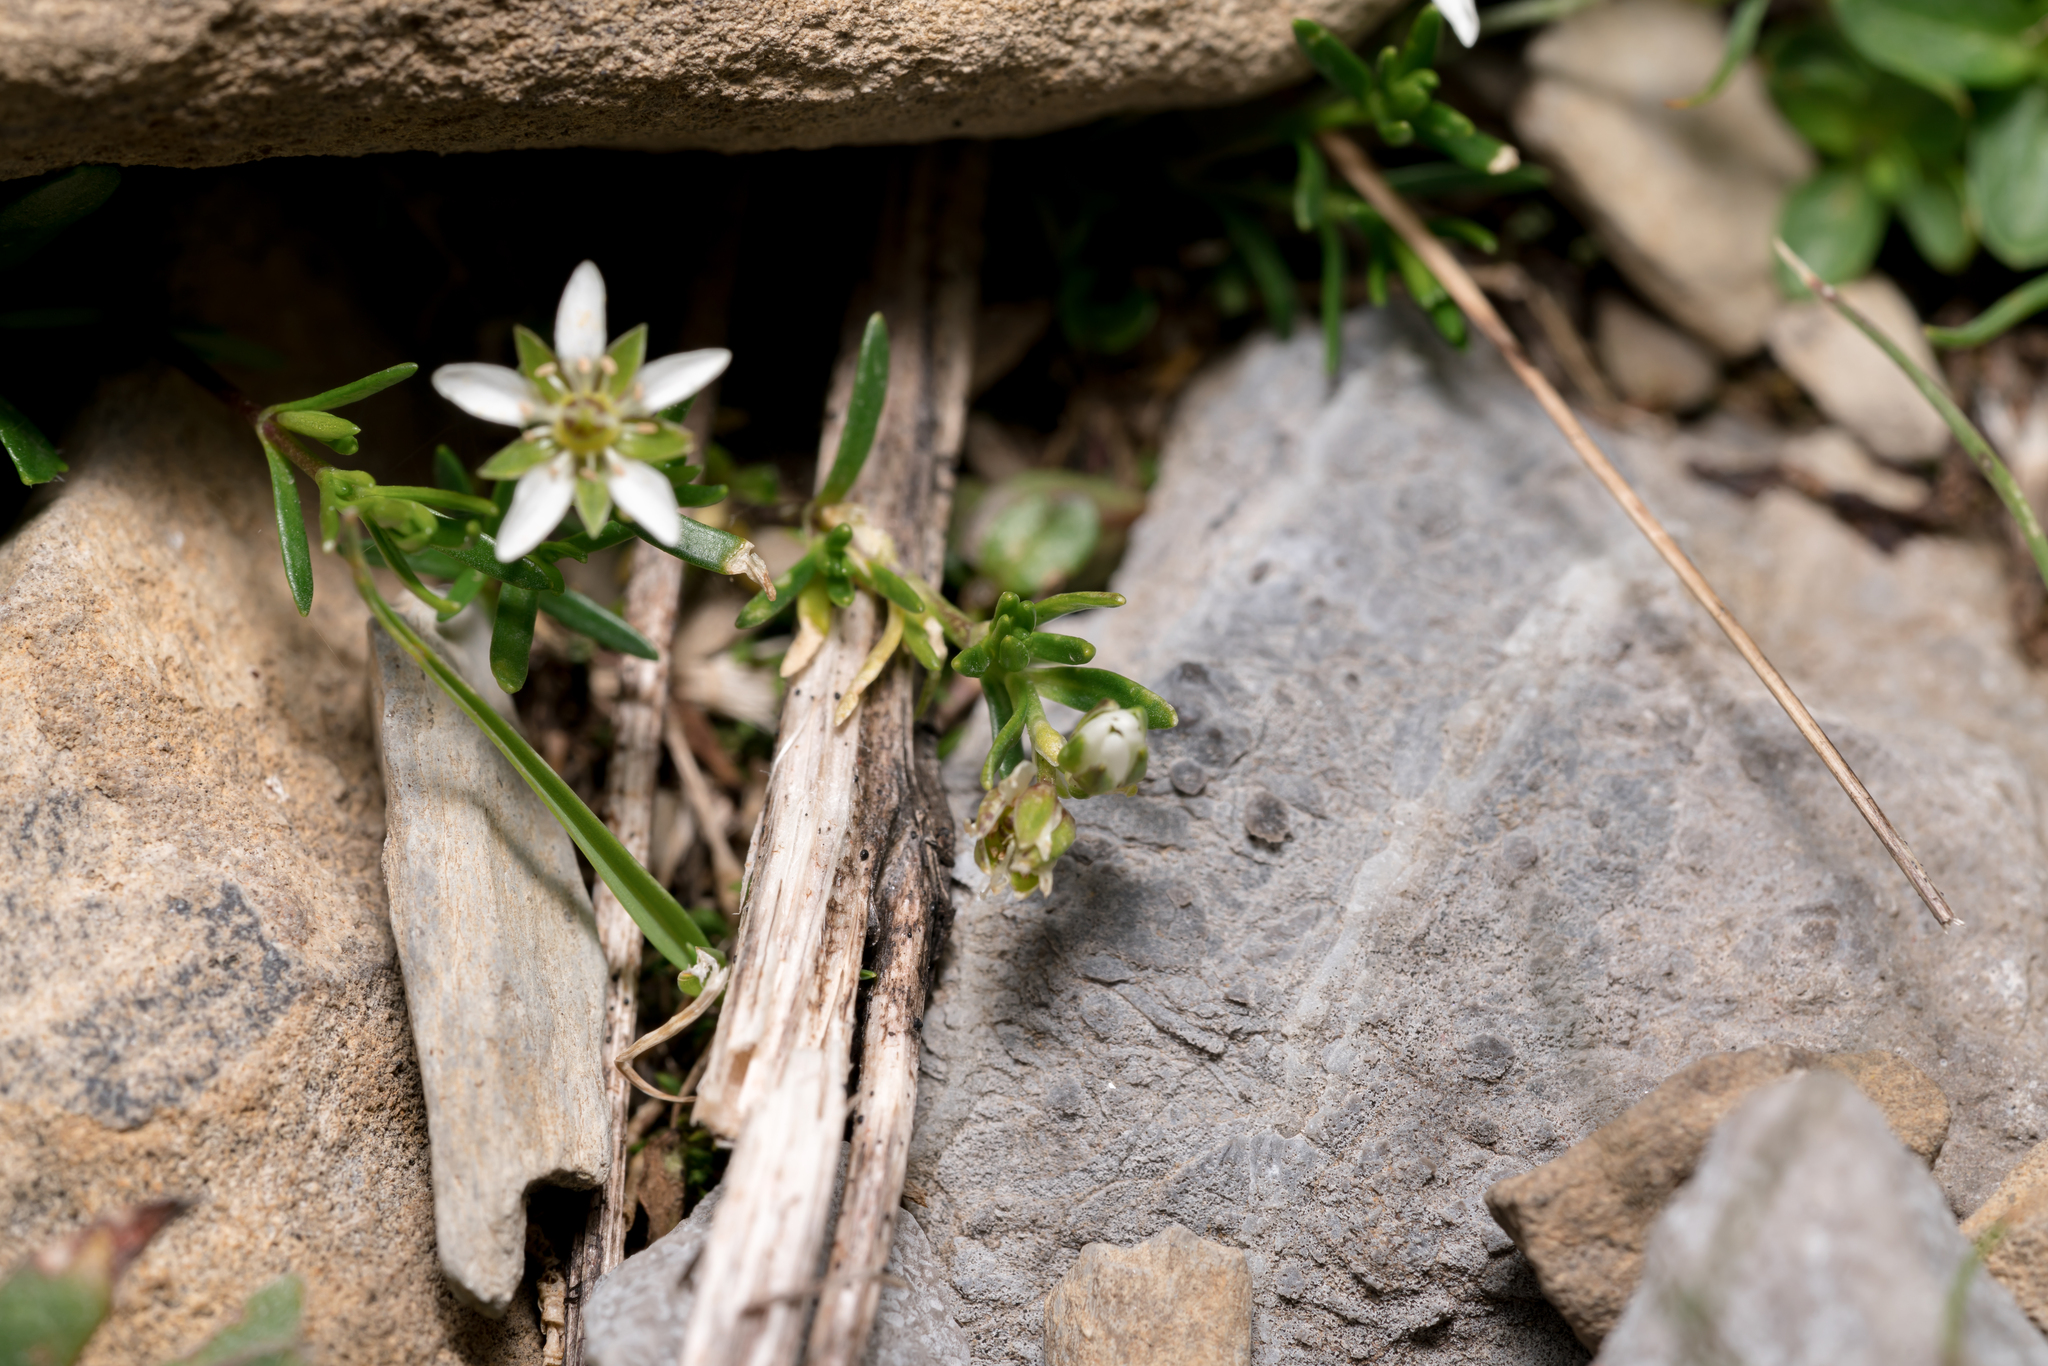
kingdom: Plantae
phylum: Tracheophyta
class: Magnoliopsida
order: Caryophyllales
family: Caryophyllaceae
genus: Moehringia
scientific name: Moehringia ciliata
